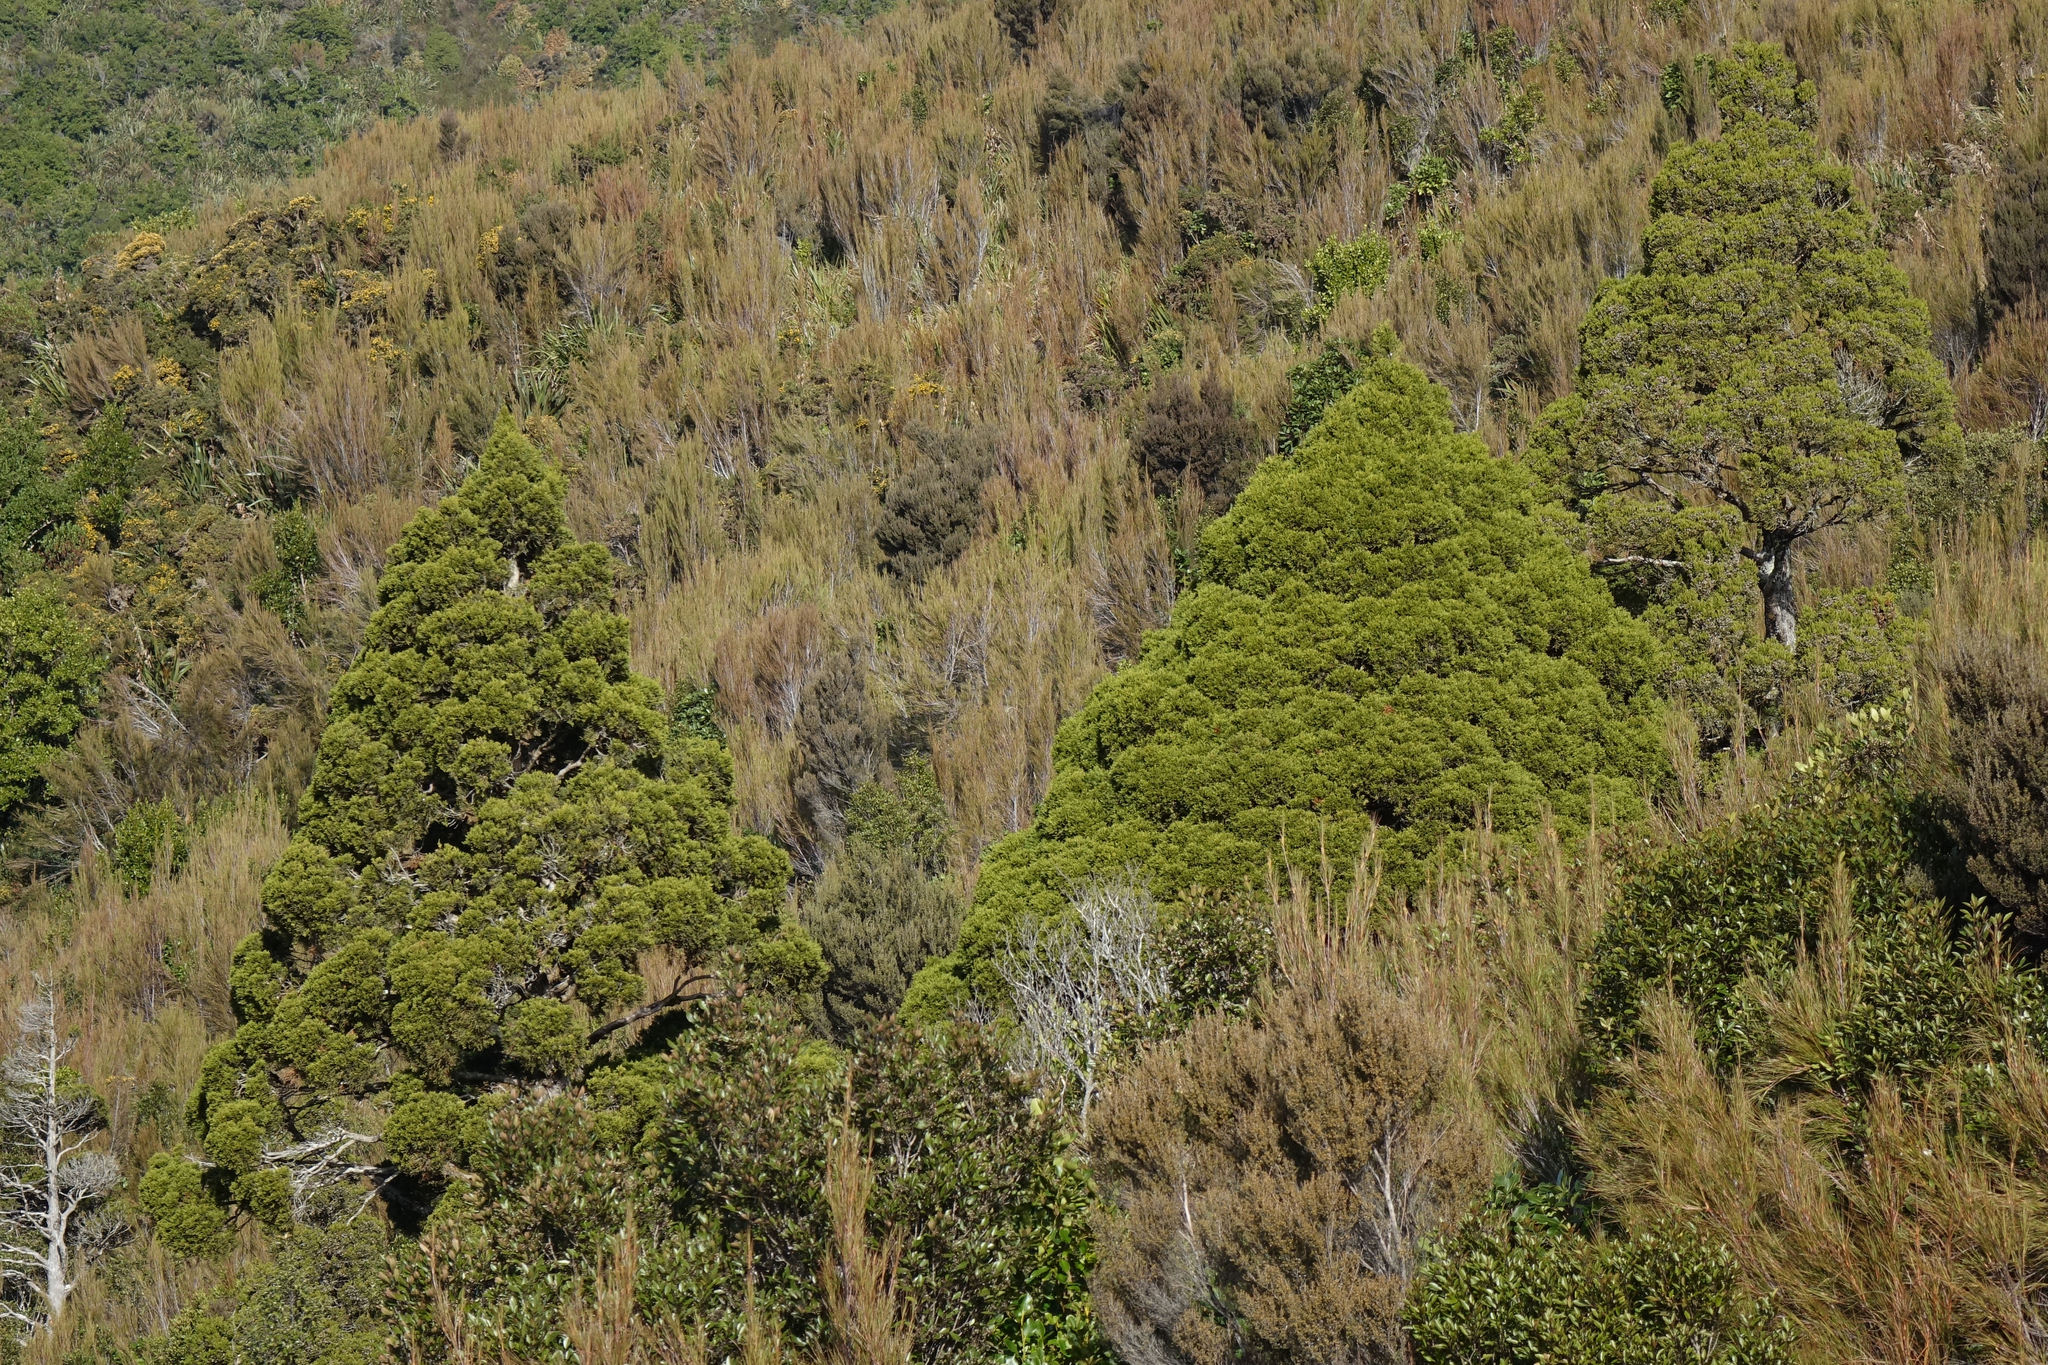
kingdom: Plantae
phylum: Tracheophyta
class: Pinopsida
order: Pinales
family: Cupressaceae
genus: Libocedrus
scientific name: Libocedrus bidwillii
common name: Cedar
